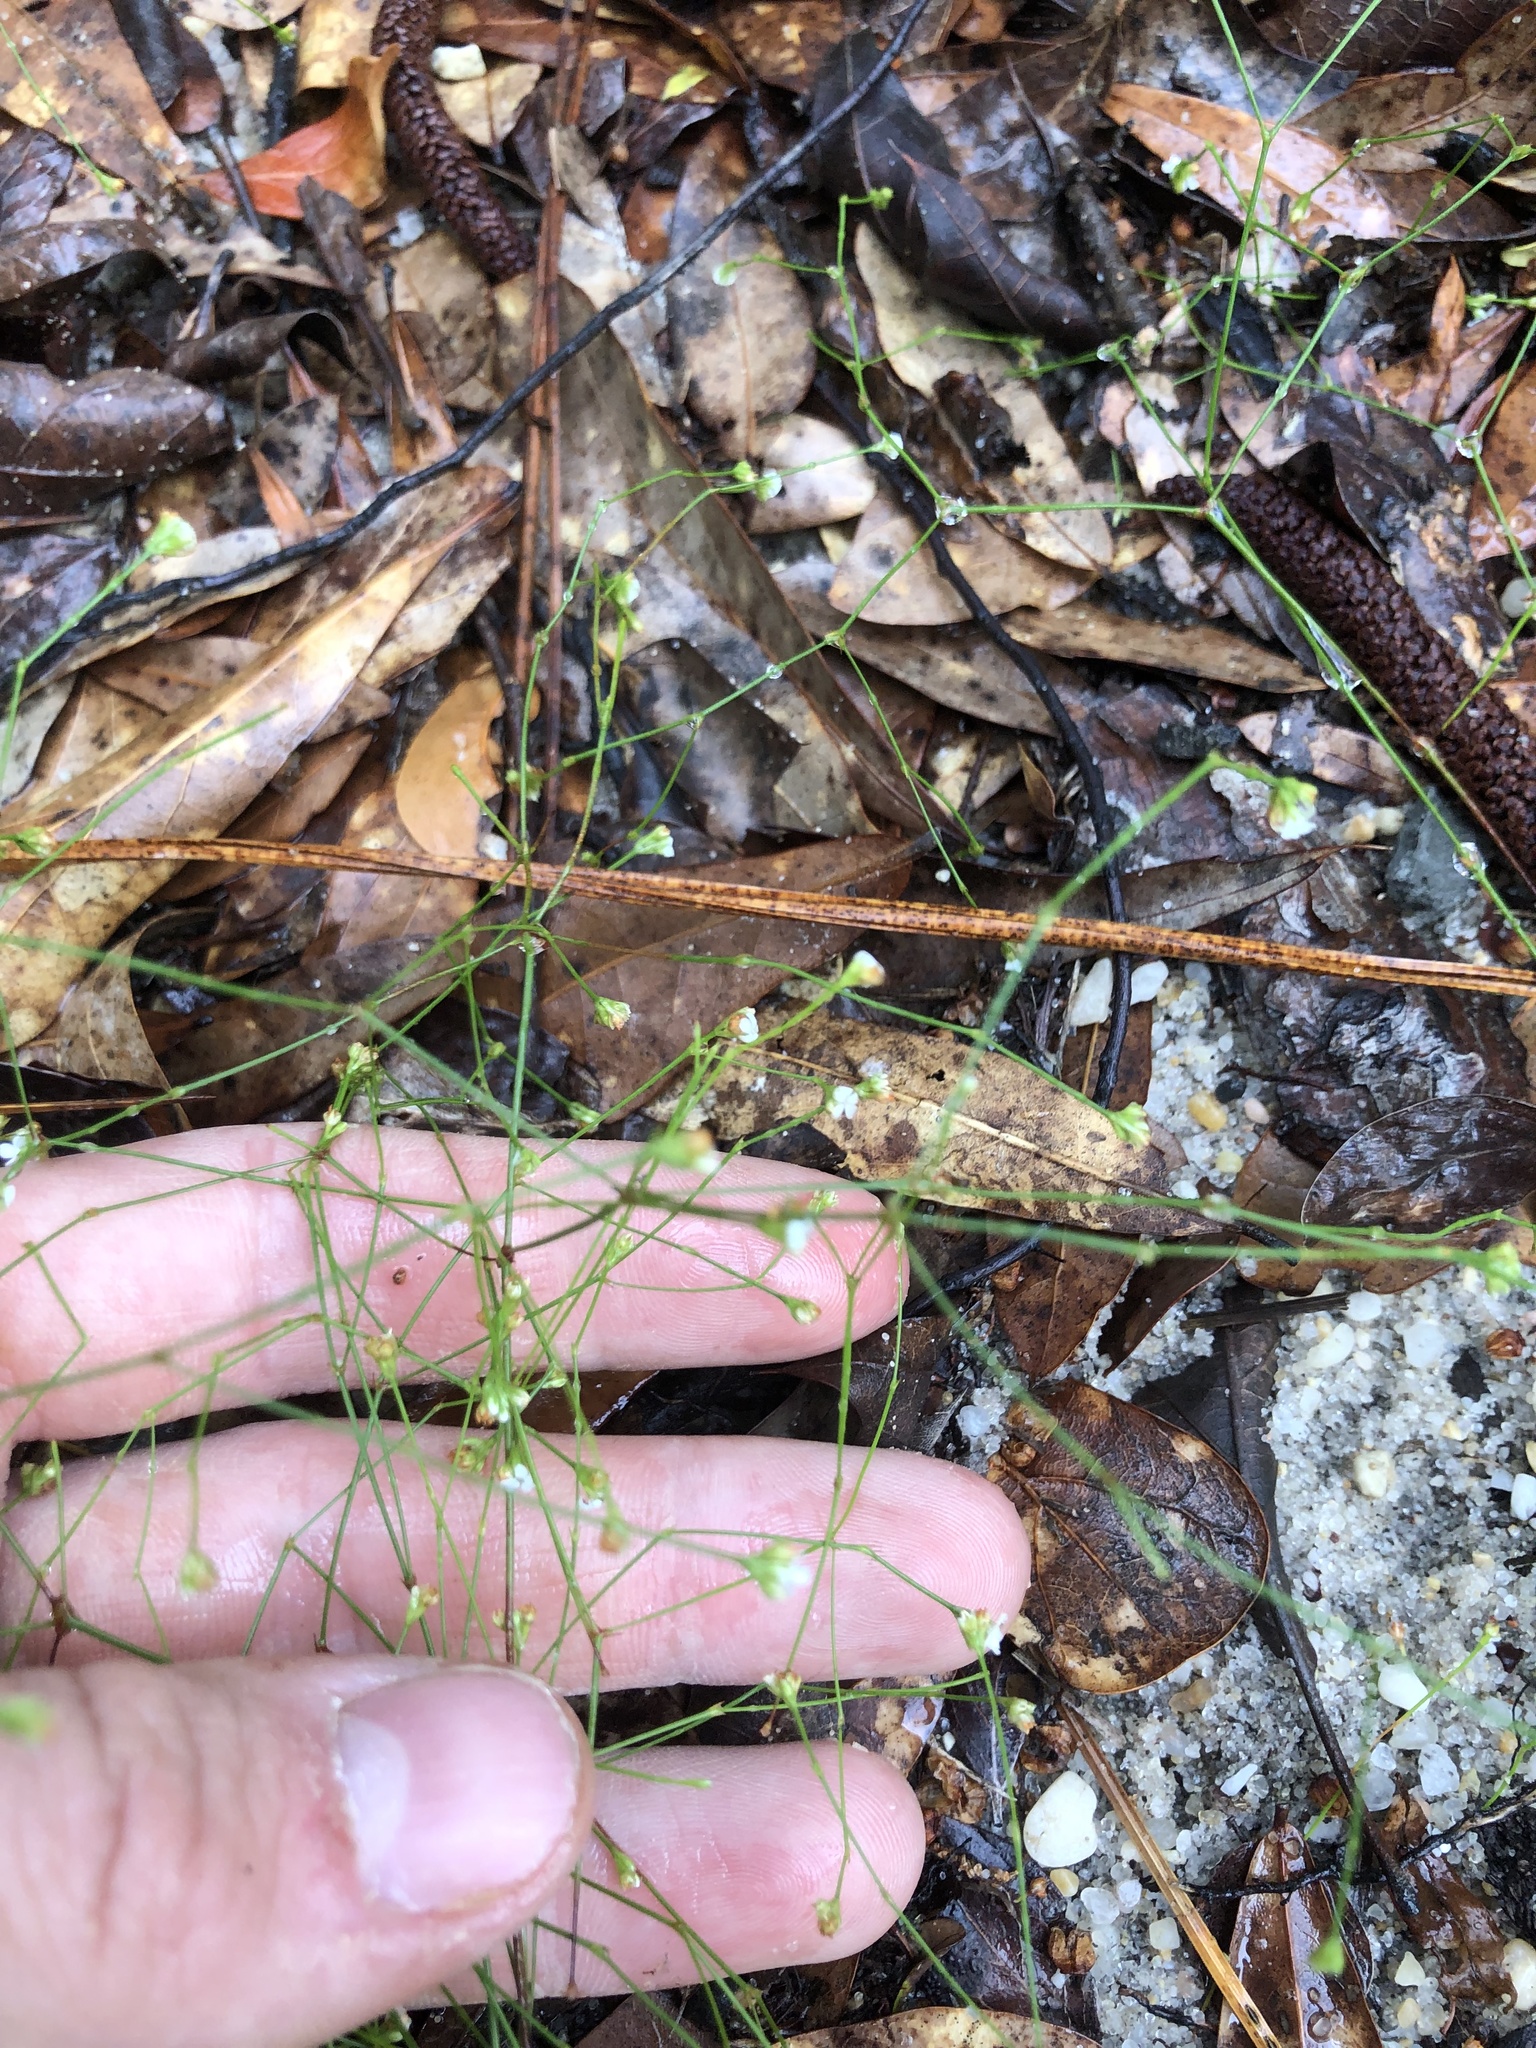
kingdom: Plantae
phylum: Tracheophyta
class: Magnoliopsida
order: Caryophyllales
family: Caryophyllaceae
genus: Stipulicida
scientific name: Stipulicida setacea
